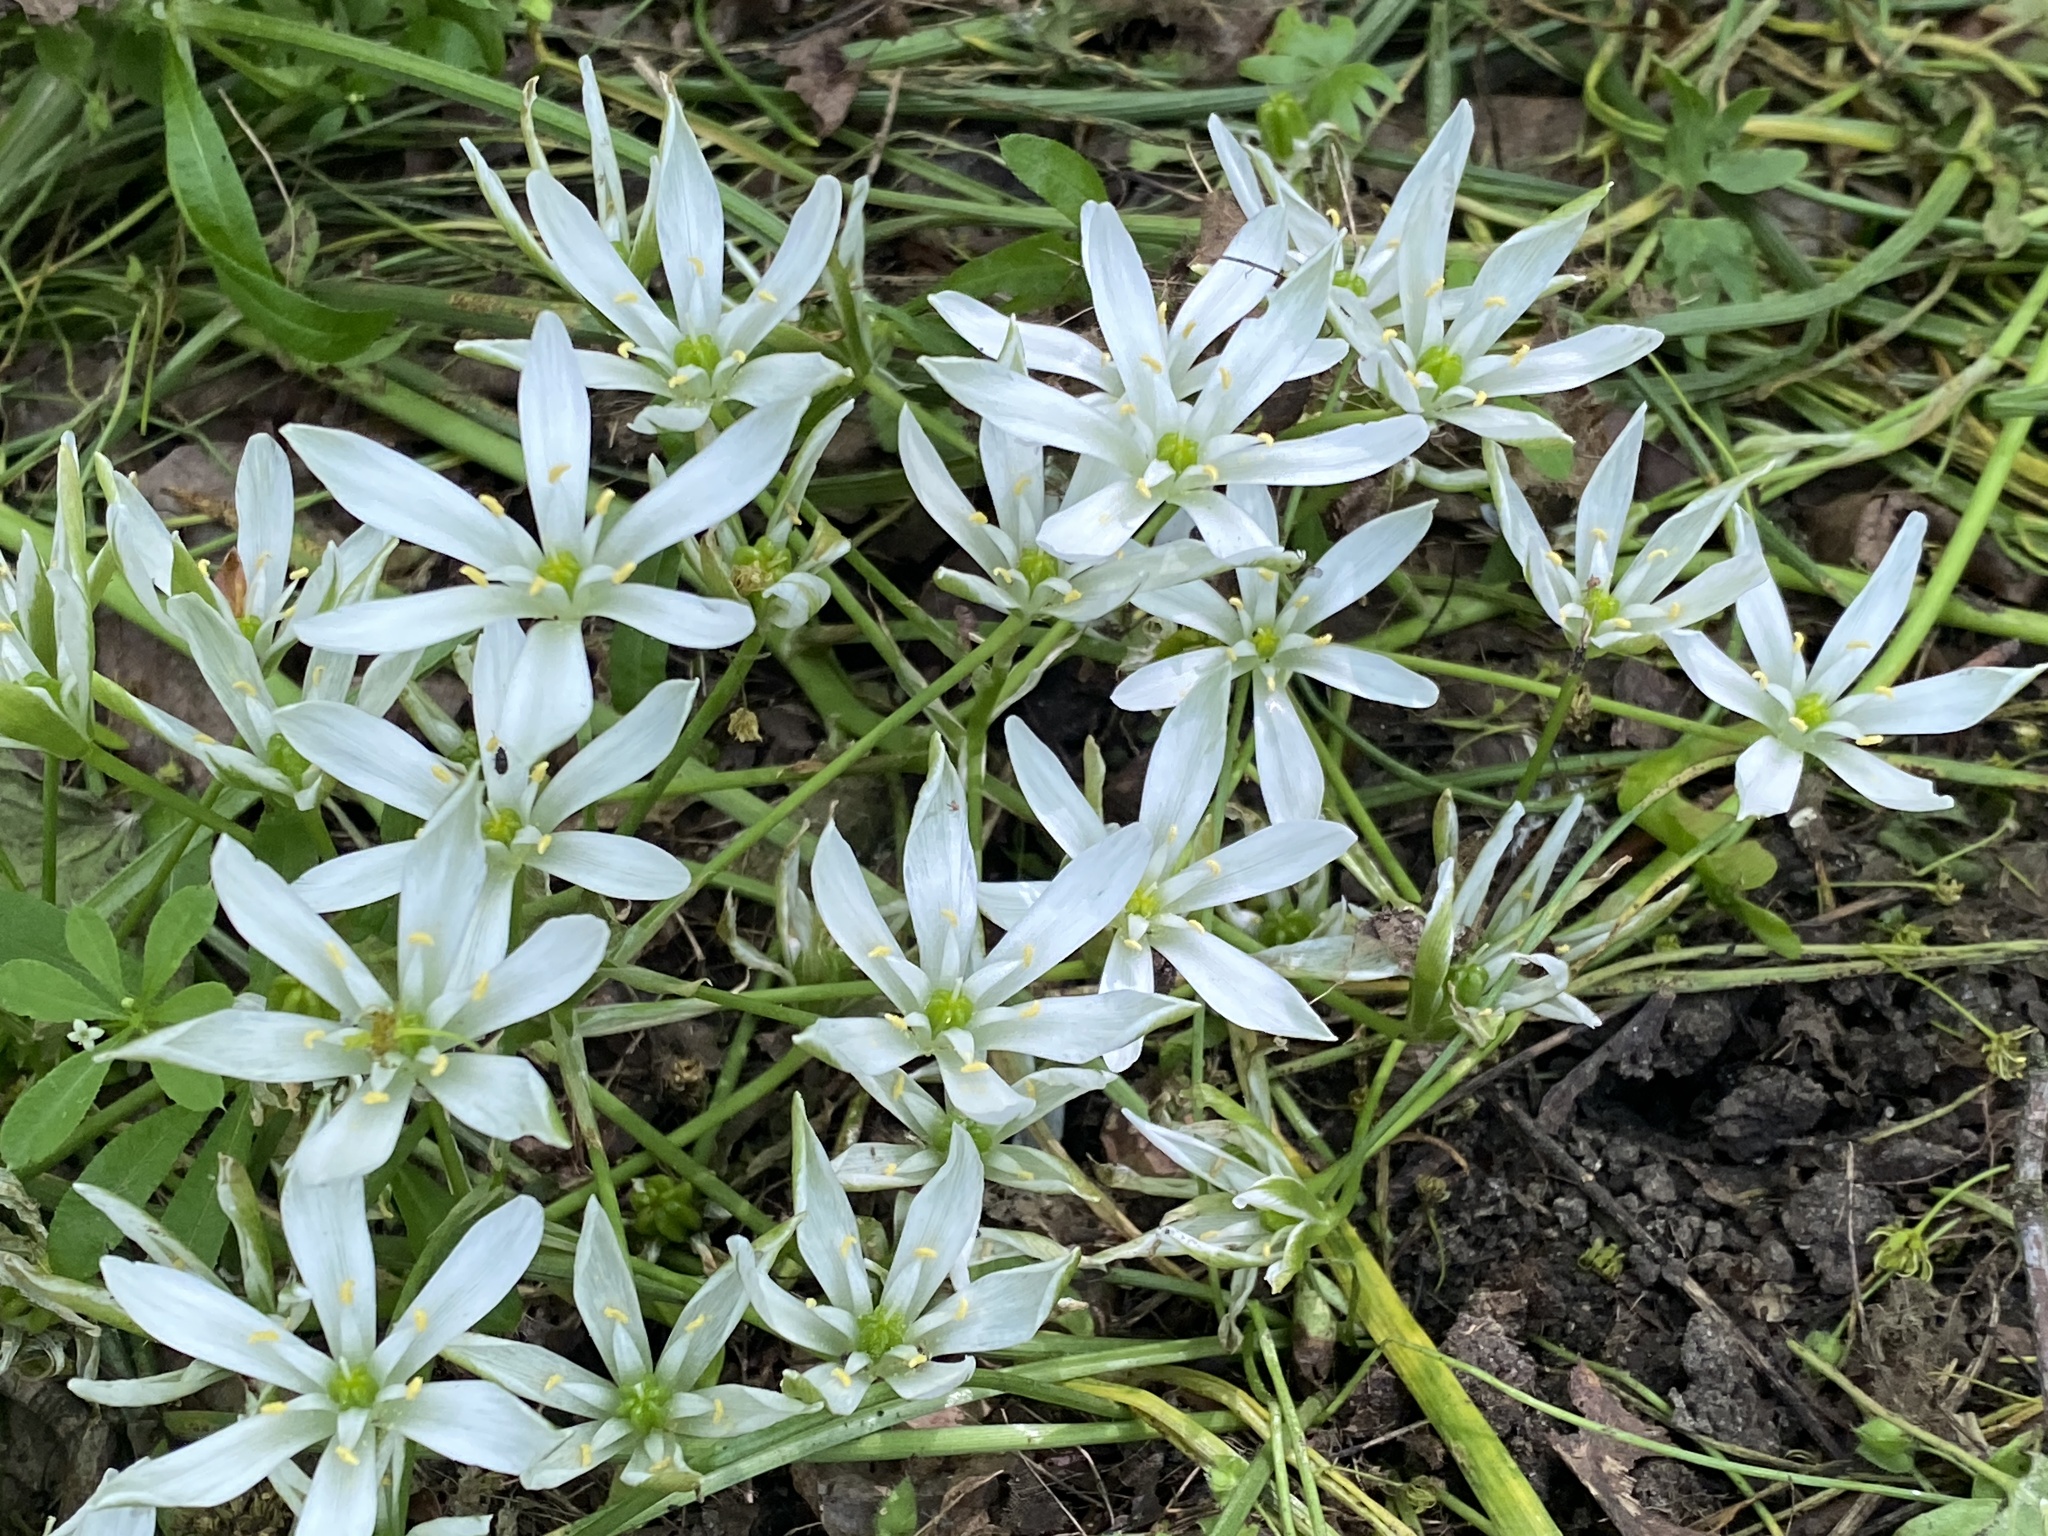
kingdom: Plantae
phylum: Tracheophyta
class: Liliopsida
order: Asparagales
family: Asparagaceae
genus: Ornithogalum
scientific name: Ornithogalum umbellatum
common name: Garden star-of-bethlehem
